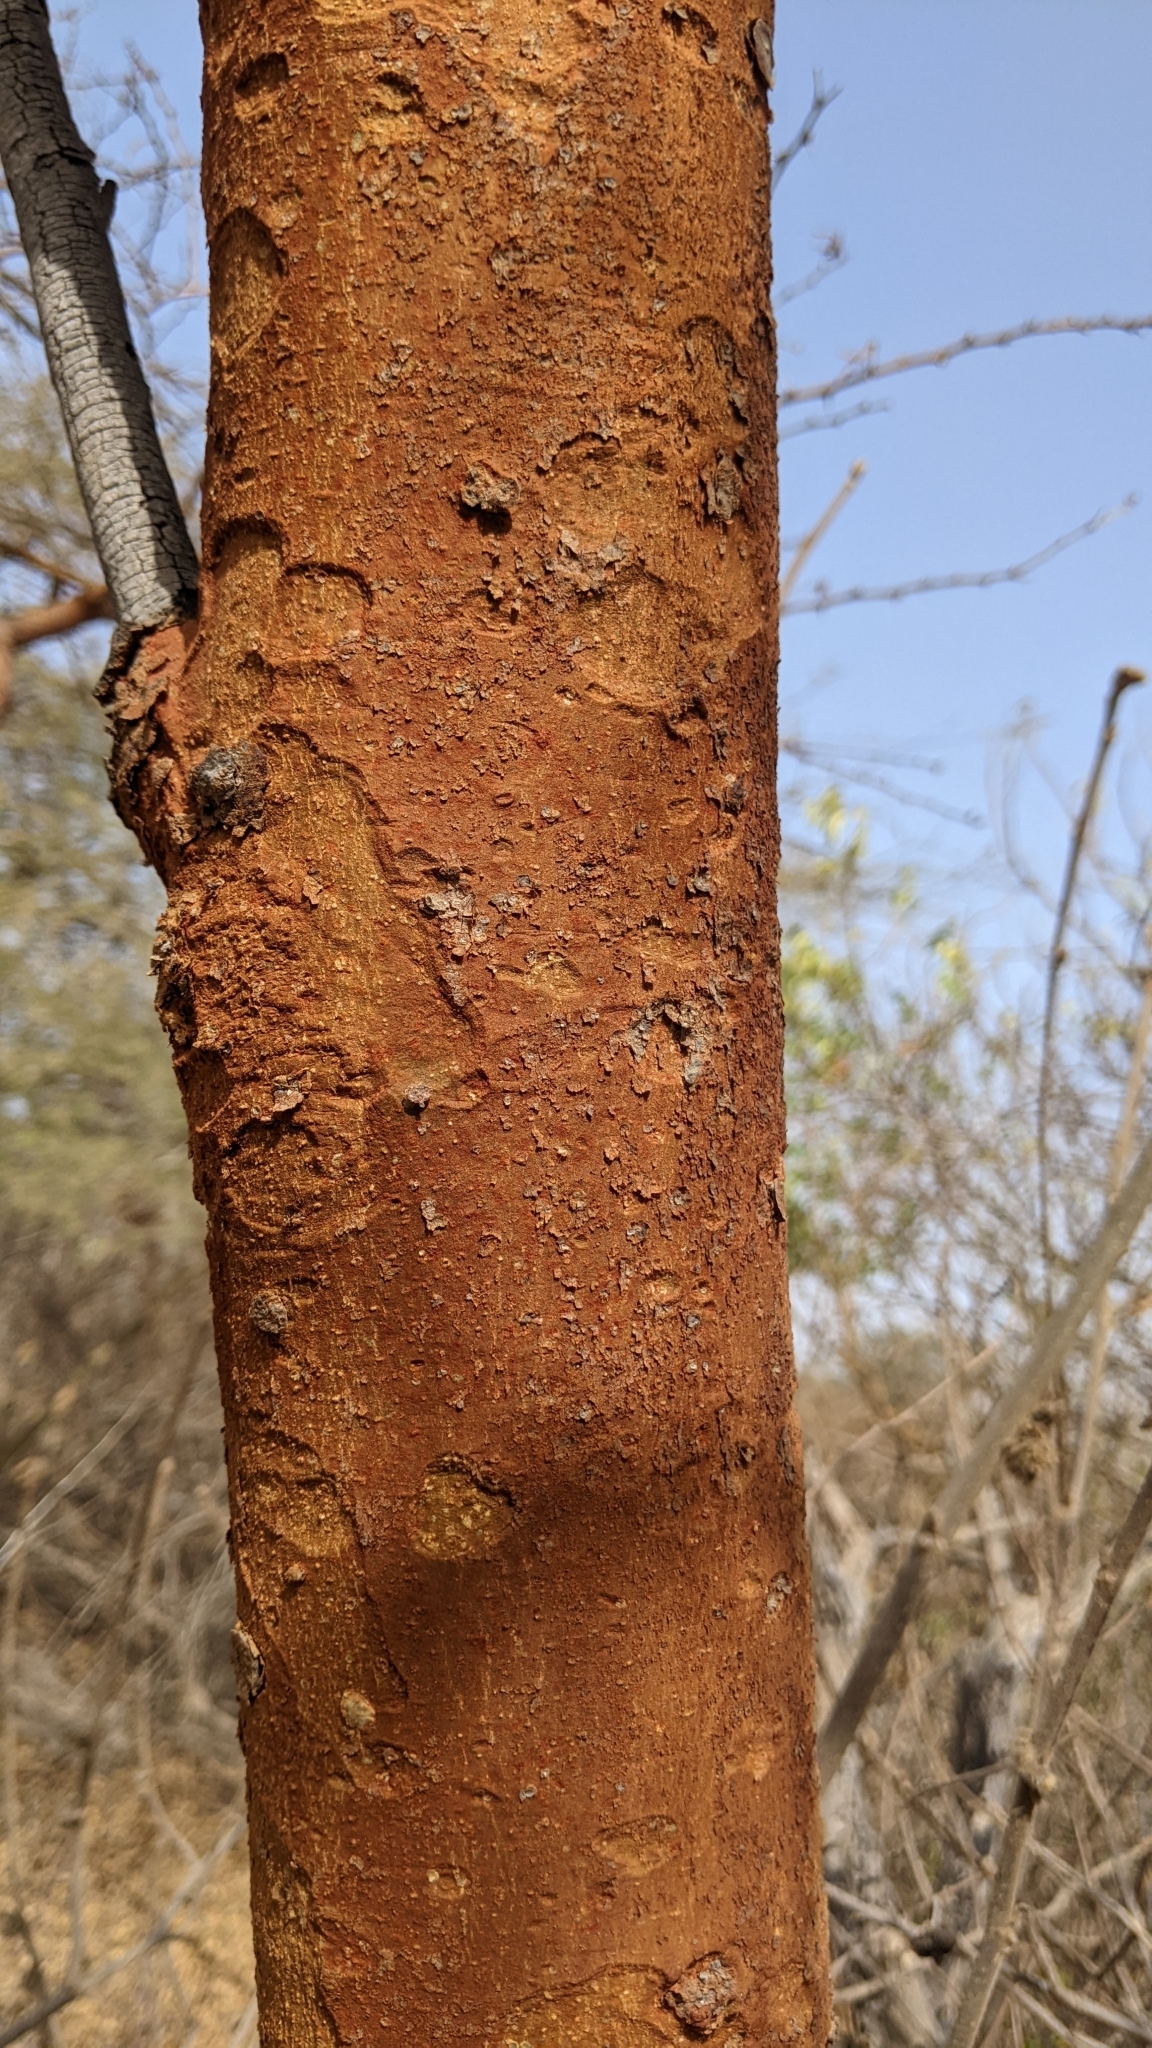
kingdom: Plantae
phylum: Tracheophyta
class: Magnoliopsida
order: Fabales
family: Fabaceae
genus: Vachellia
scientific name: Vachellia seyal
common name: Thirtythorn
